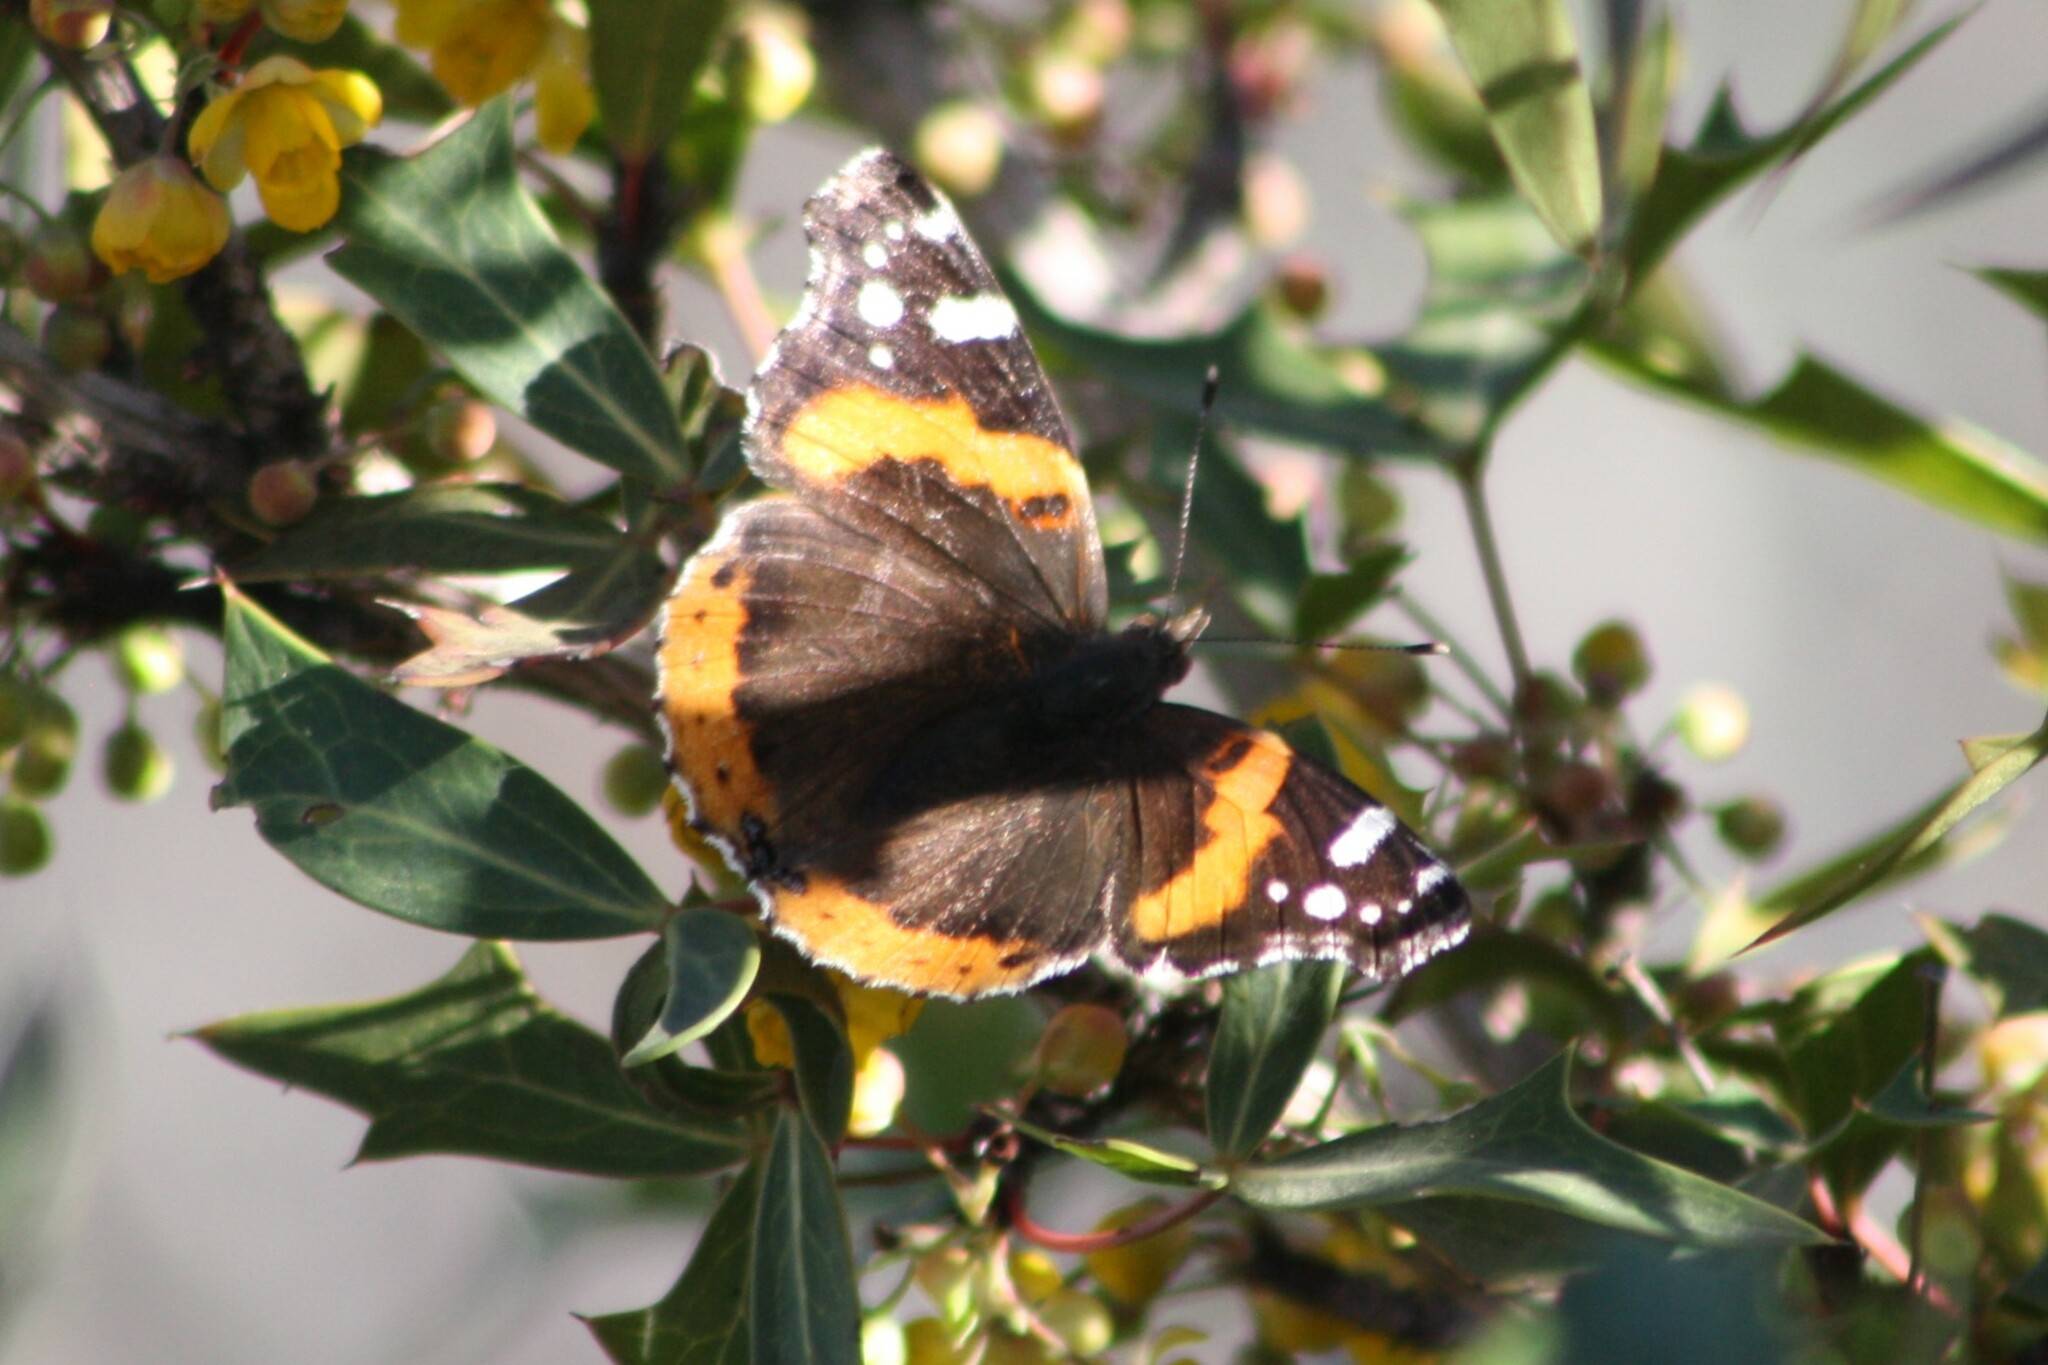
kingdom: Animalia
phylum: Arthropoda
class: Insecta
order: Lepidoptera
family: Nymphalidae
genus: Vanessa
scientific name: Vanessa atalanta
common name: Red admiral
